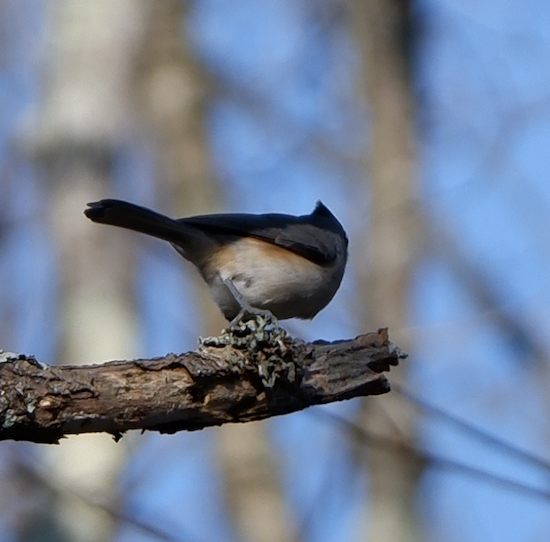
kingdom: Animalia
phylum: Chordata
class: Aves
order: Passeriformes
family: Paridae
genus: Baeolophus
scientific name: Baeolophus bicolor
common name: Tufted titmouse
